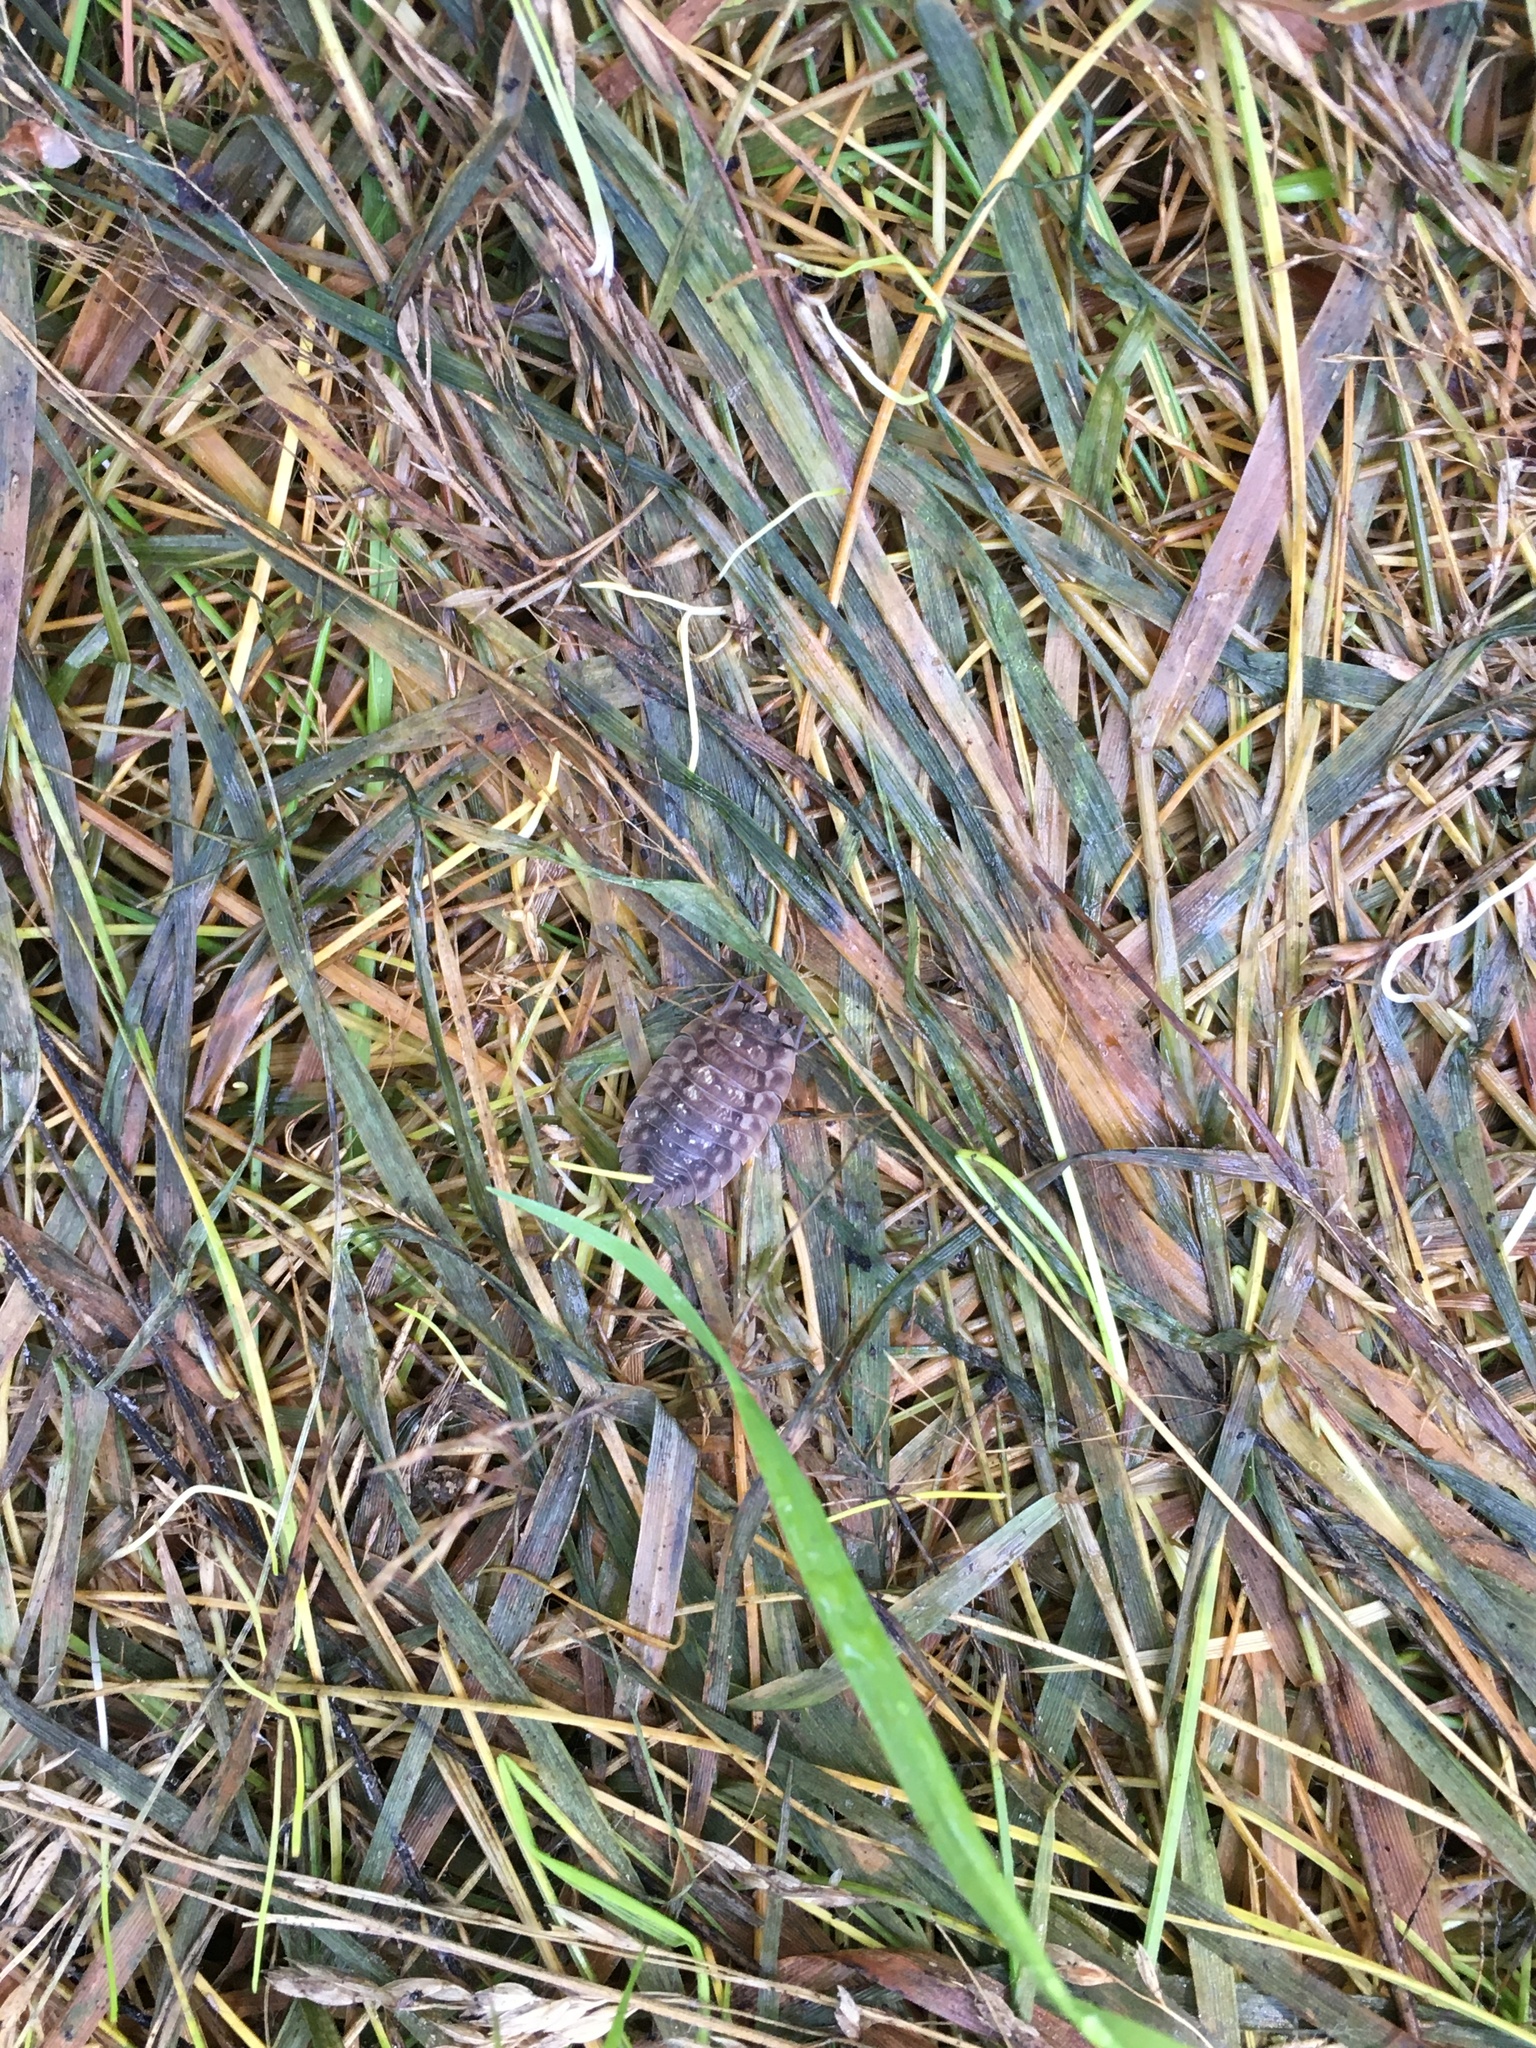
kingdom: Animalia
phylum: Arthropoda
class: Malacostraca
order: Isopoda
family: Oniscidae
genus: Oniscus
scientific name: Oniscus asellus
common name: Common shiny woodlouse
